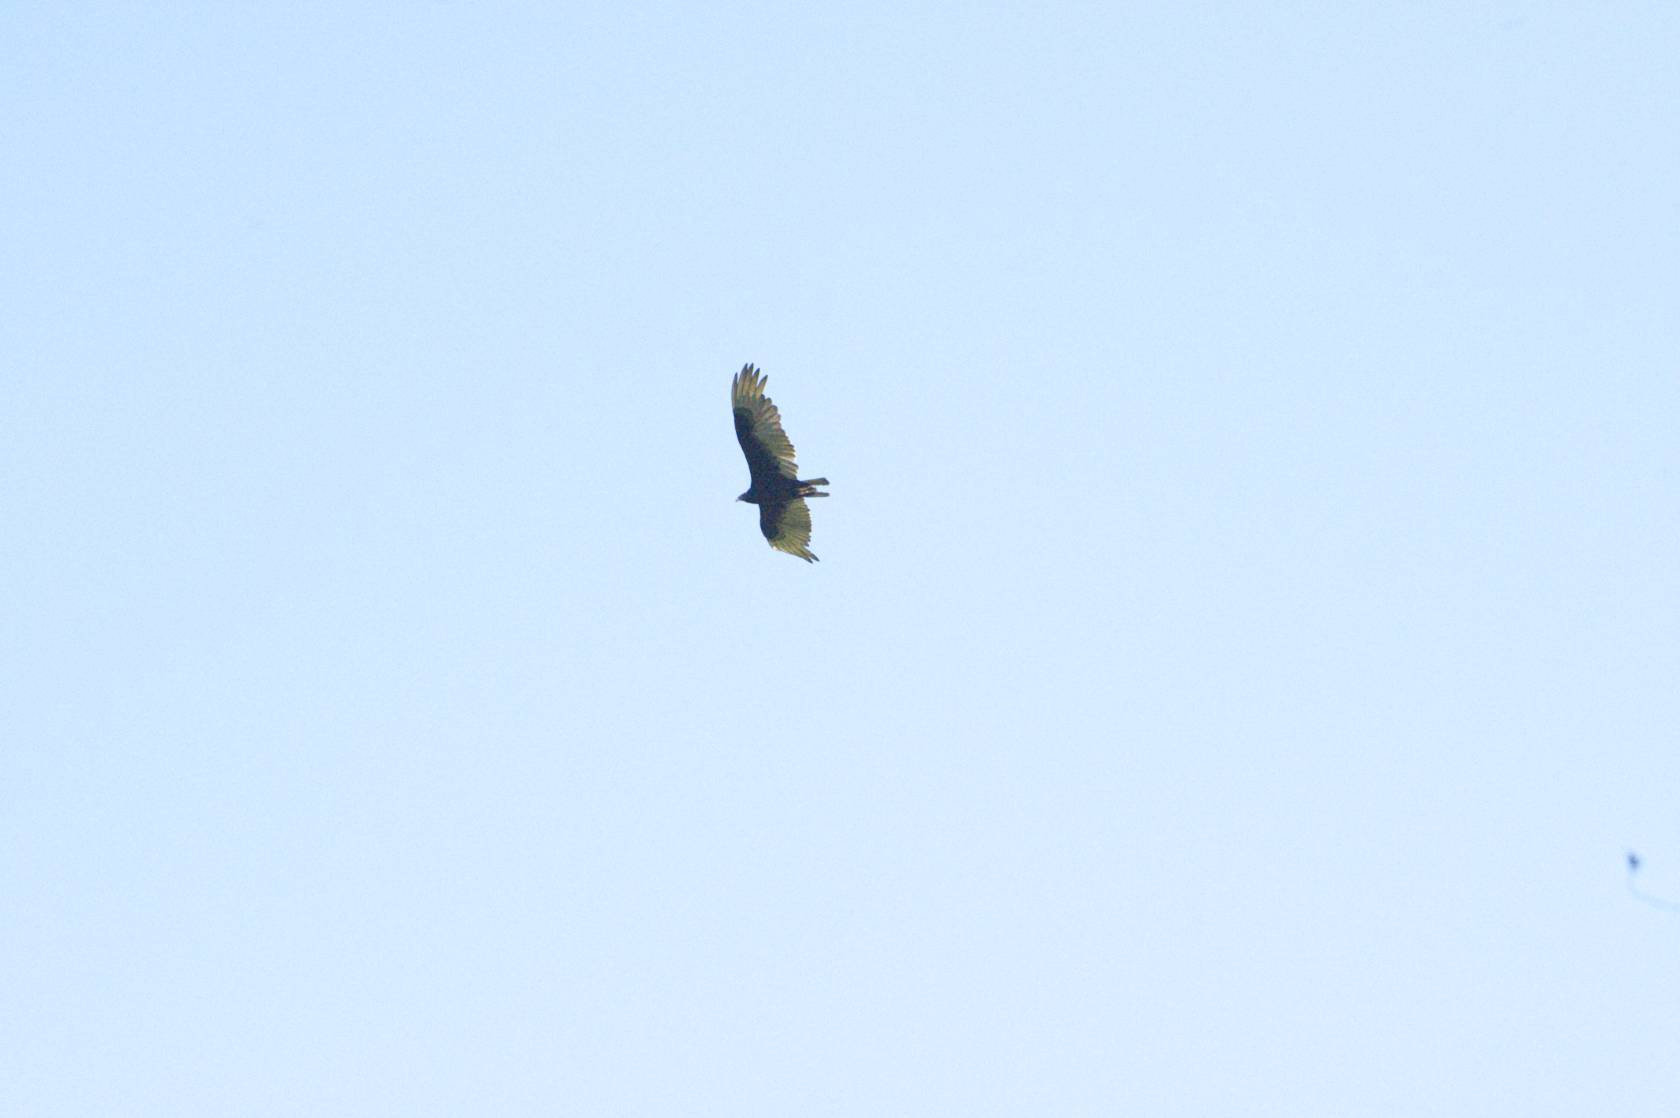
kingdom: Animalia
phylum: Chordata
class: Aves
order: Accipitriformes
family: Cathartidae
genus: Cathartes
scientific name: Cathartes aura
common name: Turkey vulture
